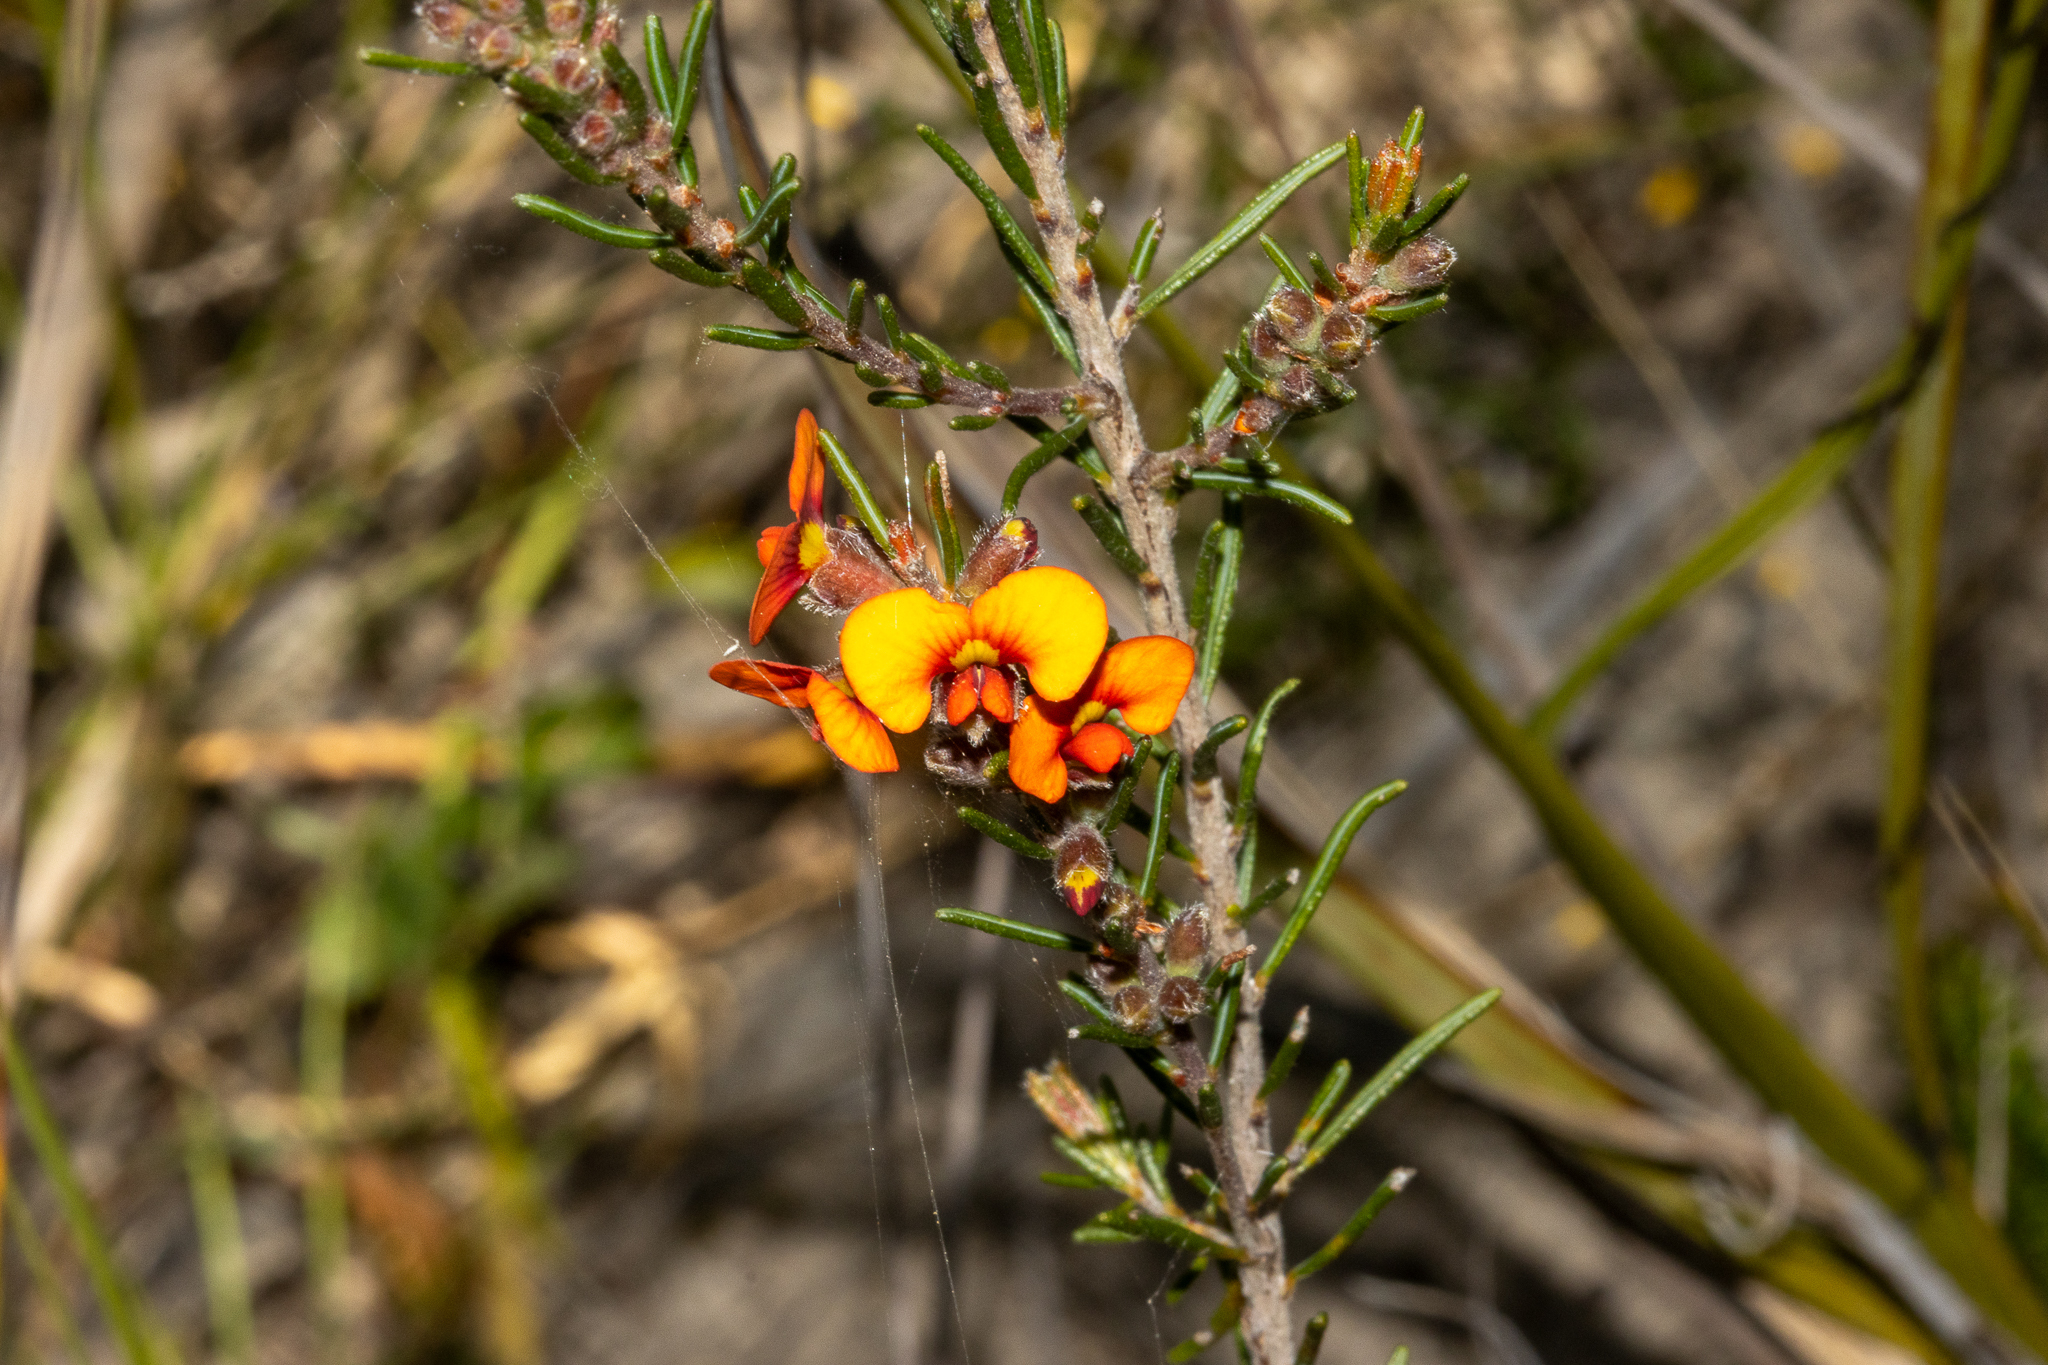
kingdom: Plantae
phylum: Tracheophyta
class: Magnoliopsida
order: Fabales
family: Fabaceae
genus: Dillwynia
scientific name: Dillwynia sericea
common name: Showy parrot-pea
